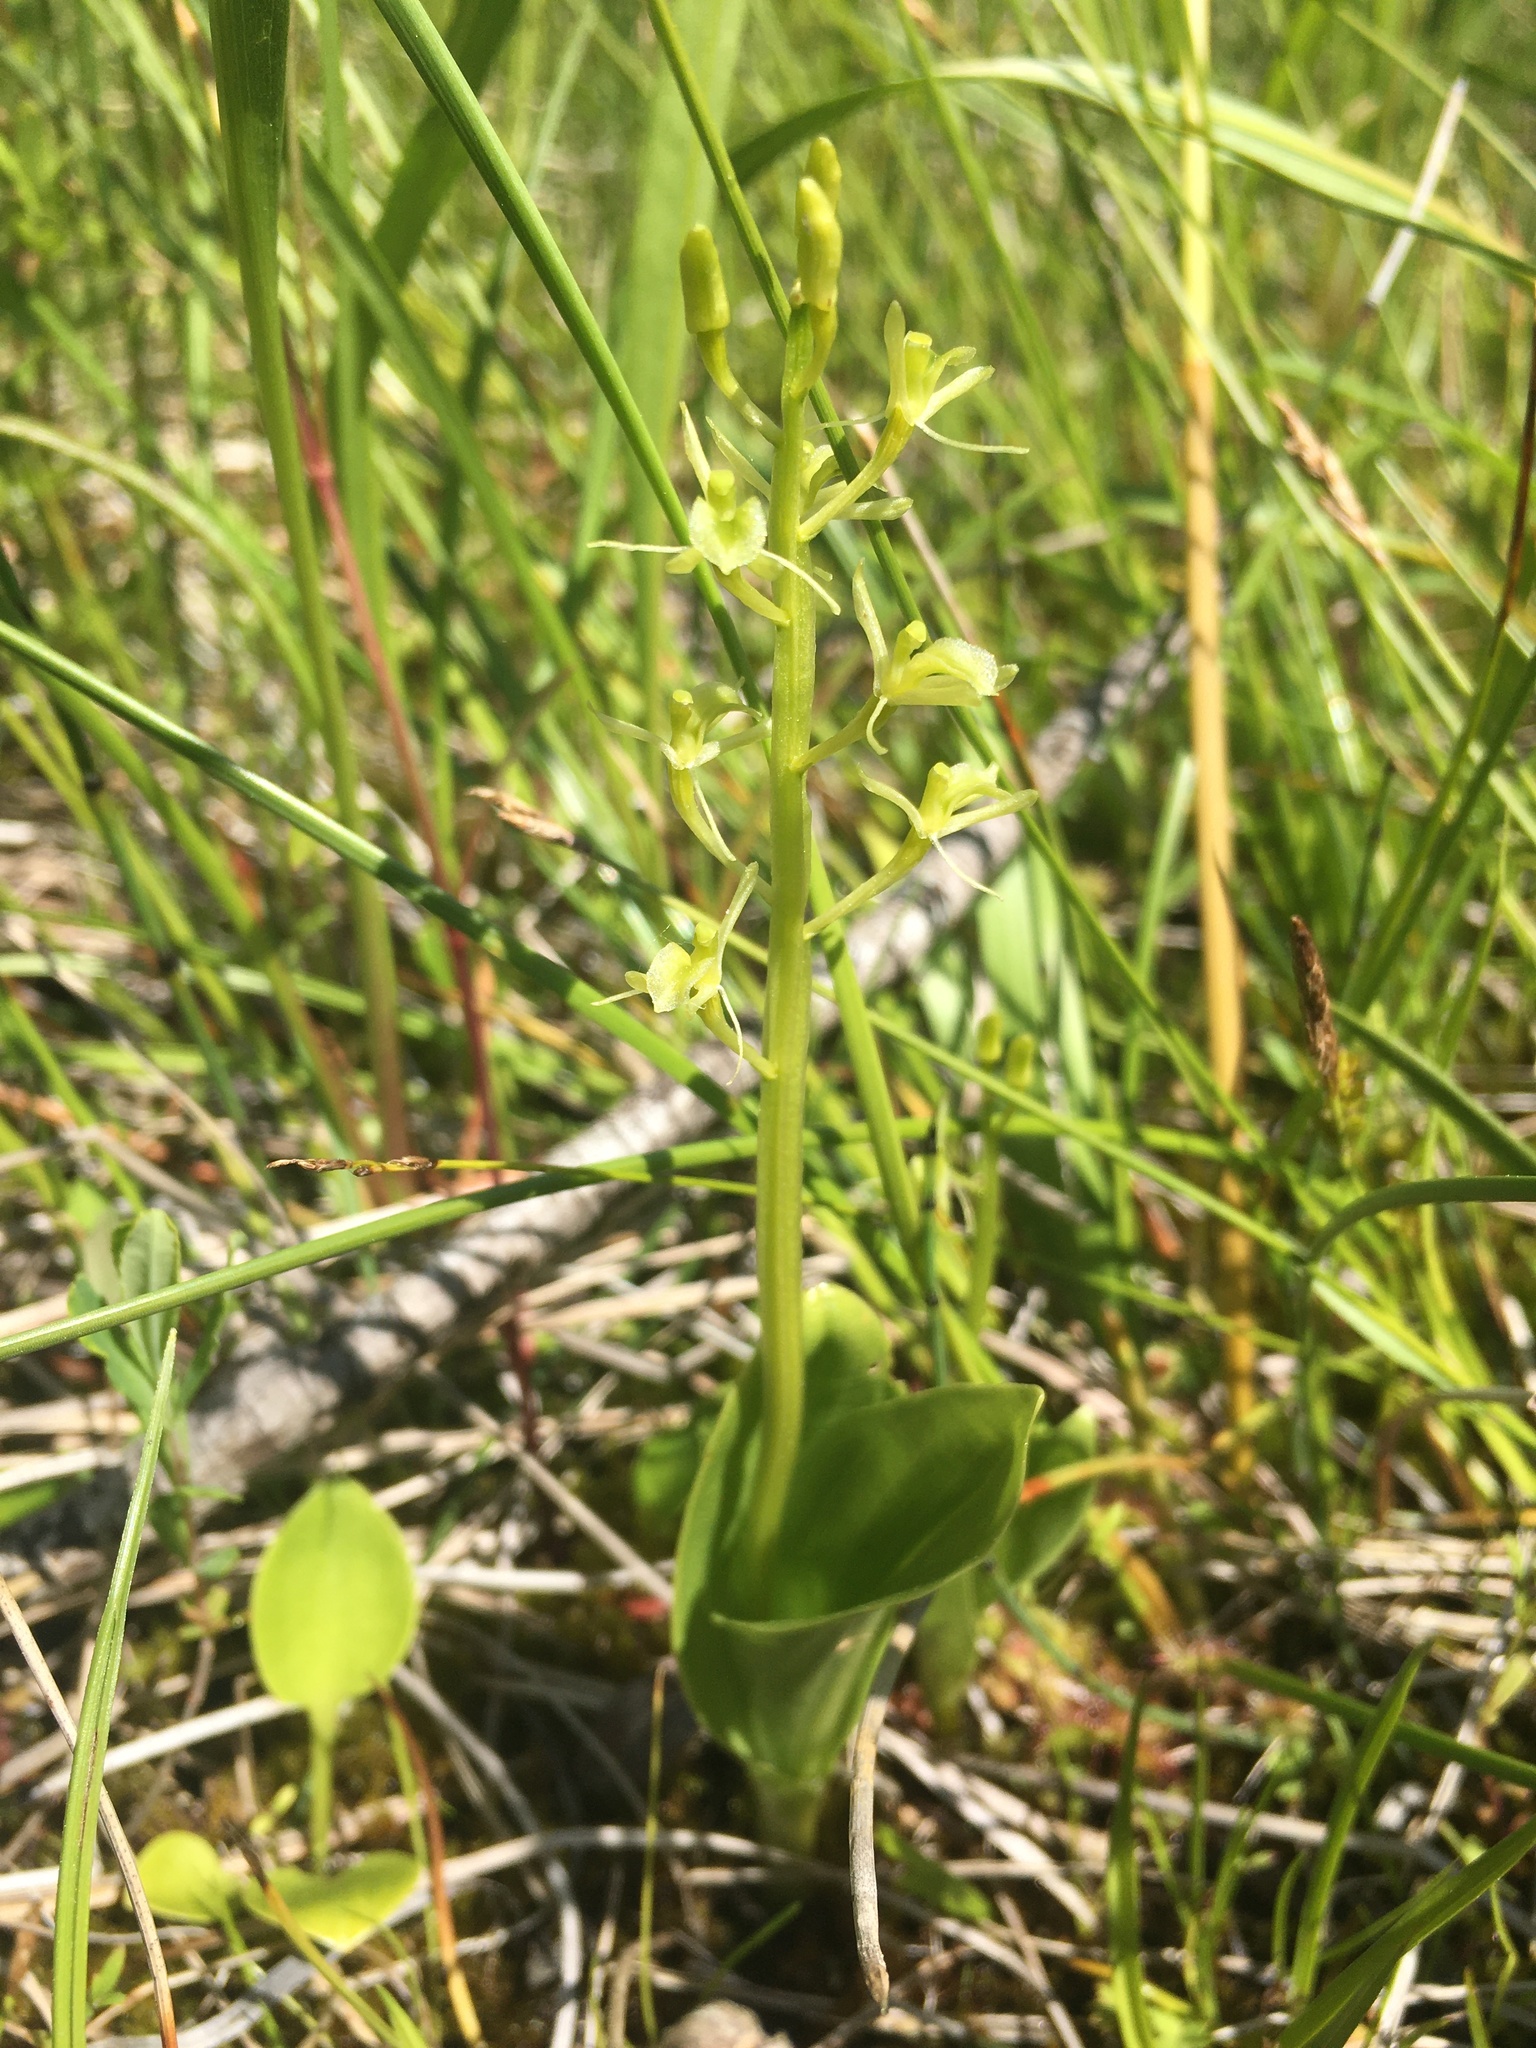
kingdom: Animalia
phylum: Arthropoda
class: Insecta
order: Coleoptera
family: Curculionidae
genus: Liparis
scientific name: Liparis loeselii
